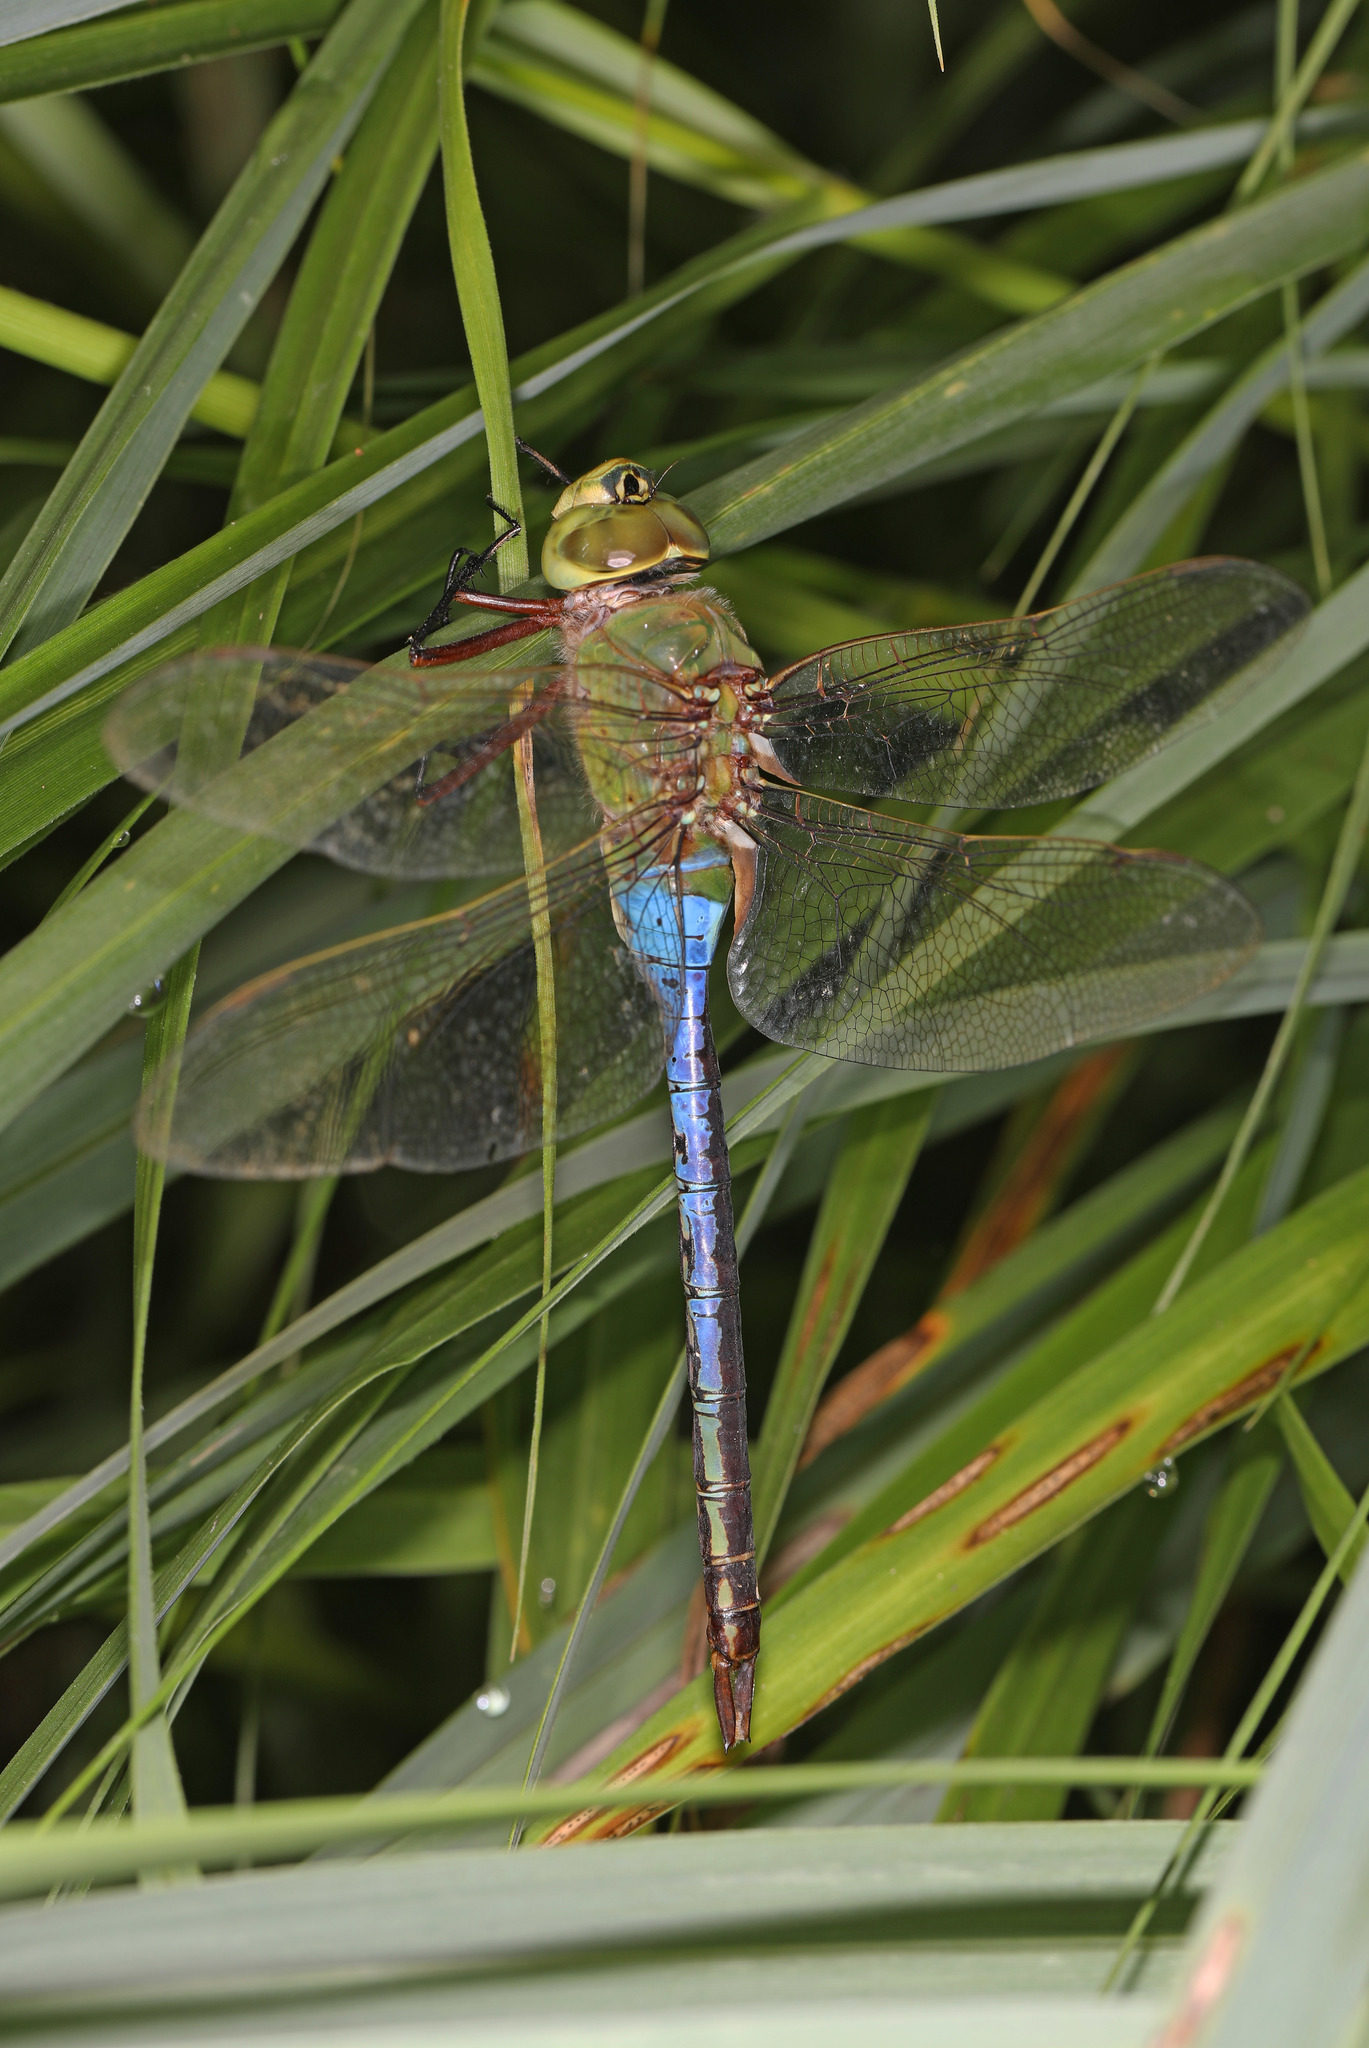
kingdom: Animalia
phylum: Arthropoda
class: Insecta
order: Odonata
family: Aeshnidae
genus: Anax
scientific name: Anax junius
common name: Common green darner
